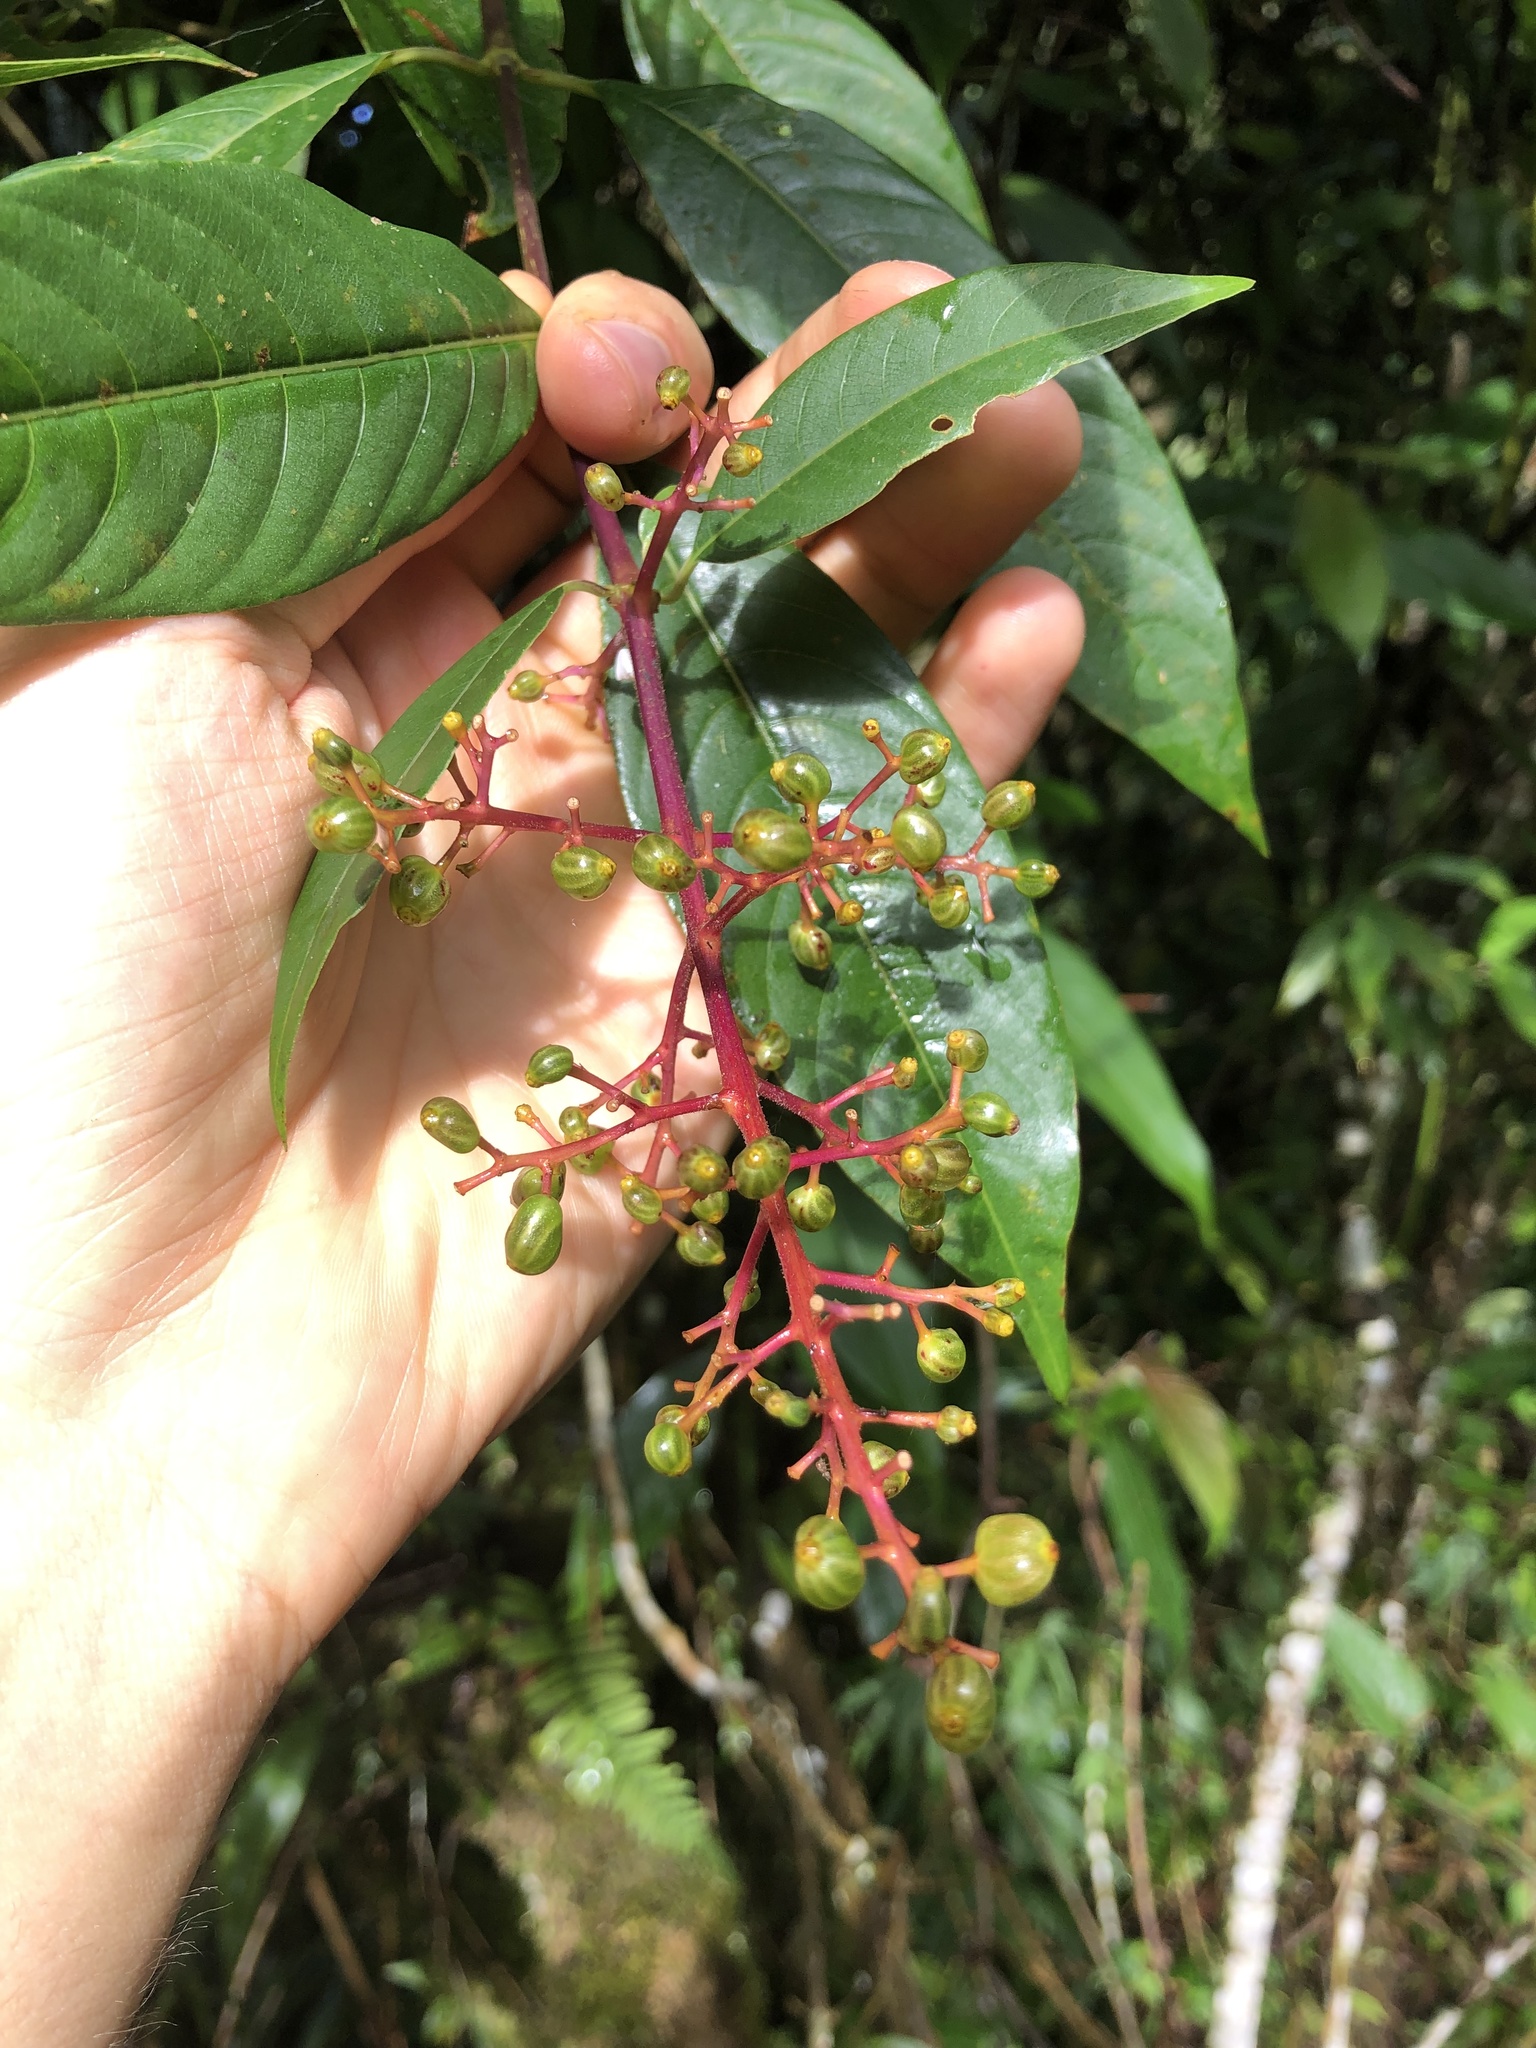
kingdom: Plantae
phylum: Tracheophyta
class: Magnoliopsida
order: Gentianales
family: Rubiaceae
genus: Palicourea
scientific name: Palicourea thyrsiflora
